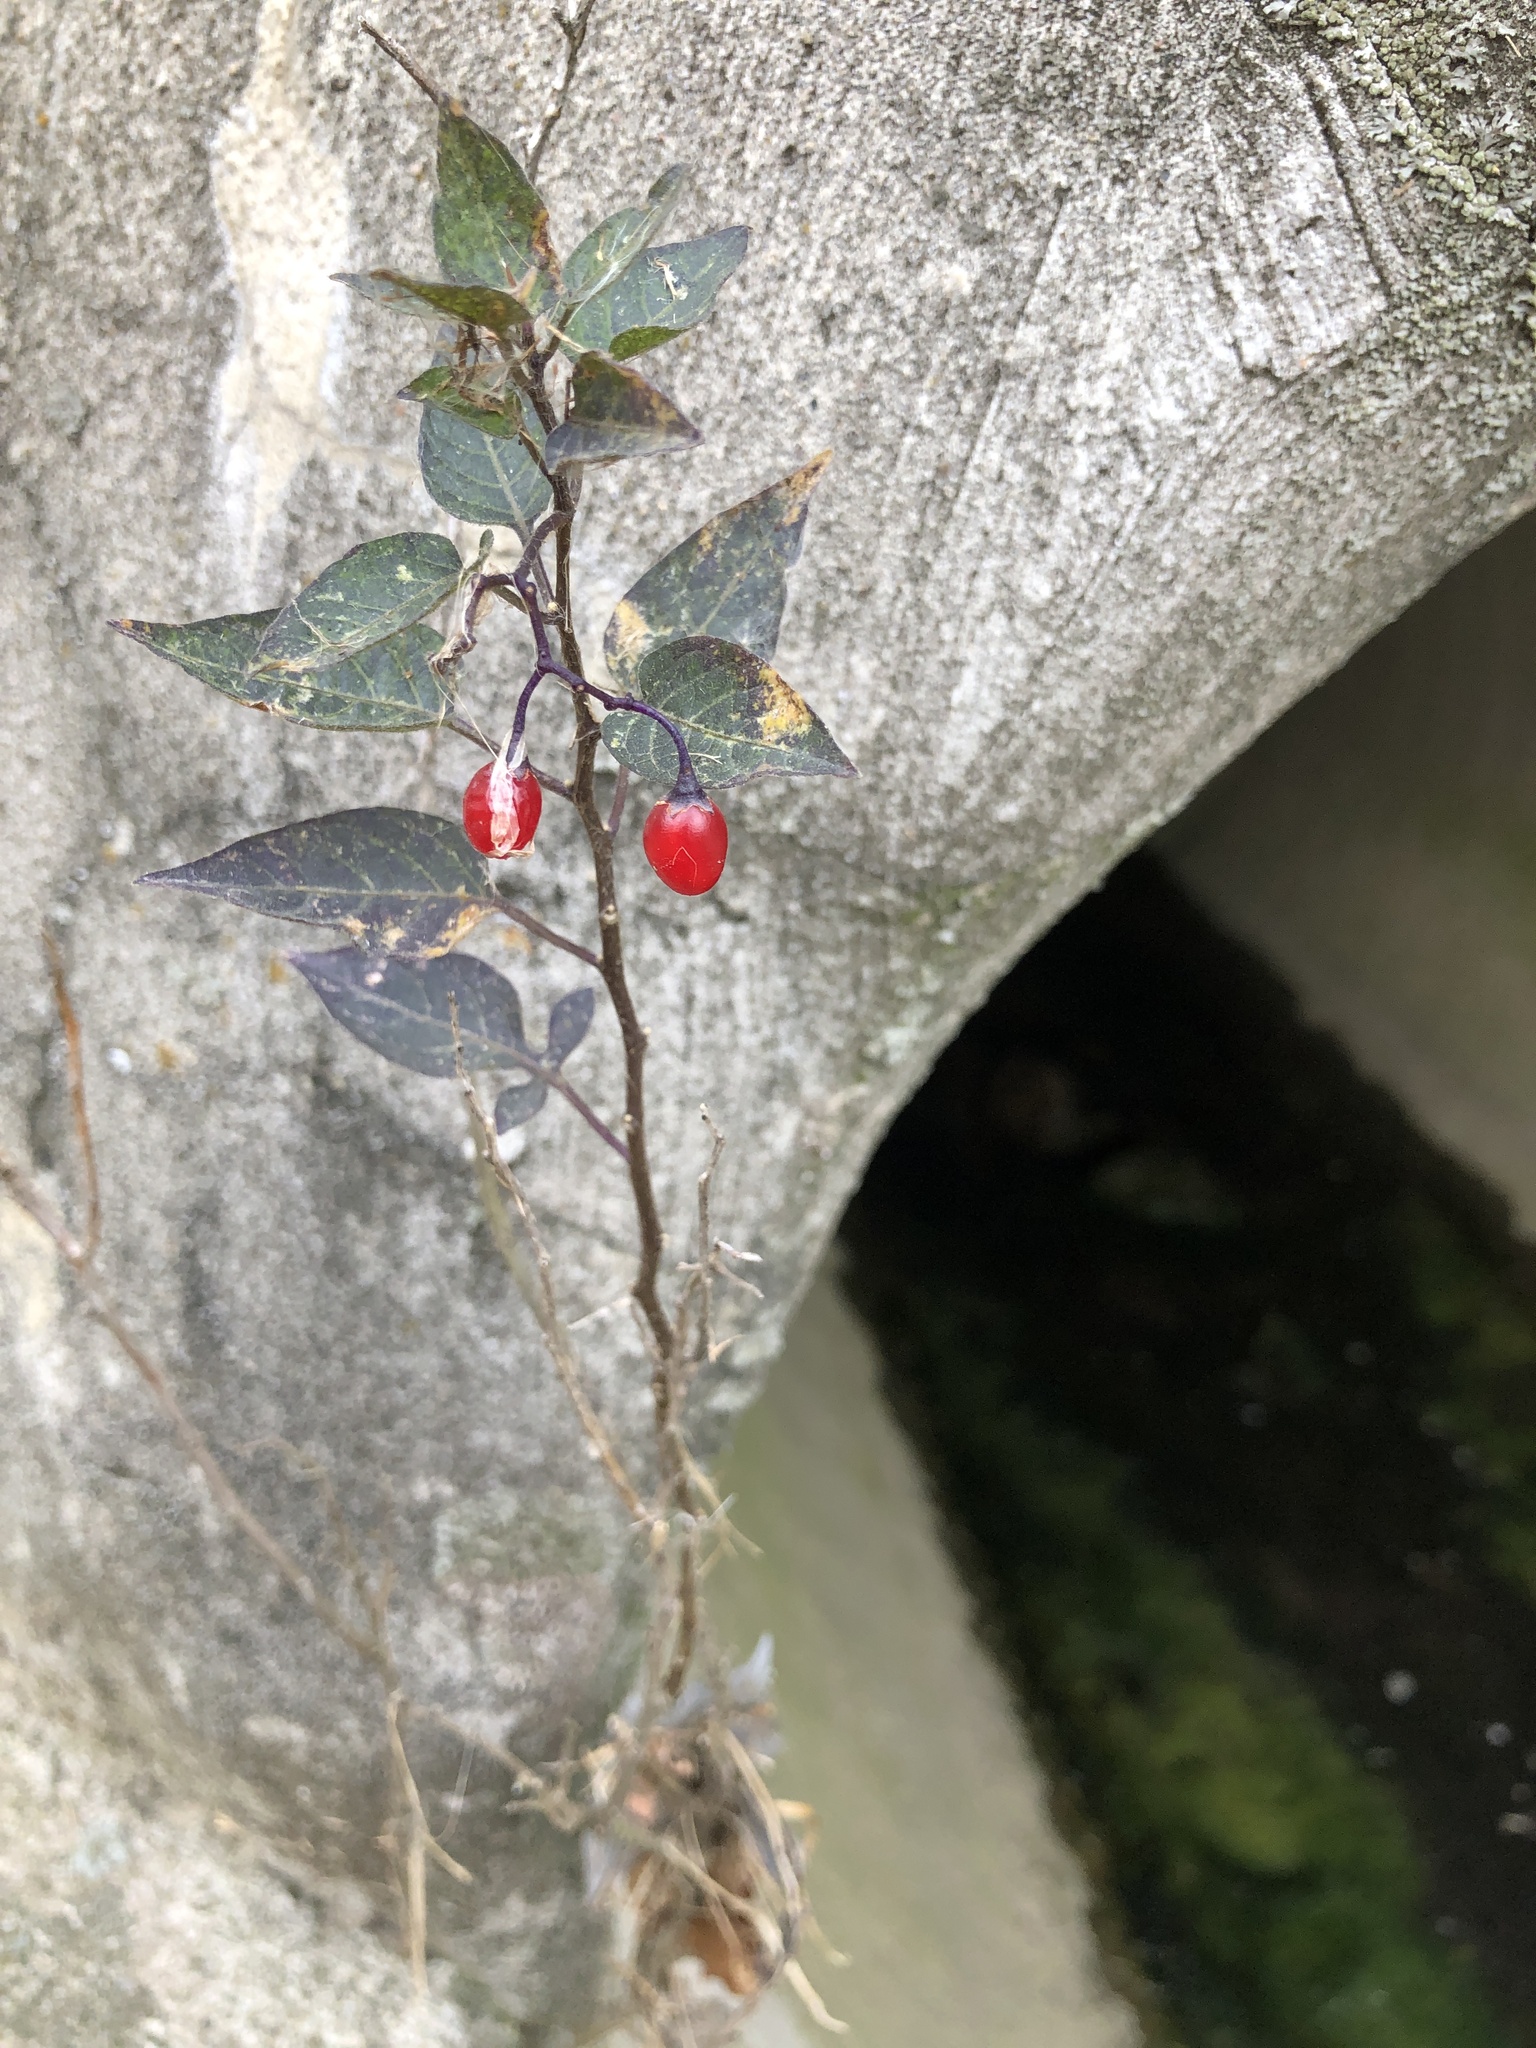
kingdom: Plantae
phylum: Tracheophyta
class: Magnoliopsida
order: Solanales
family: Solanaceae
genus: Solanum
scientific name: Solanum dulcamara
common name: Climbing nightshade
